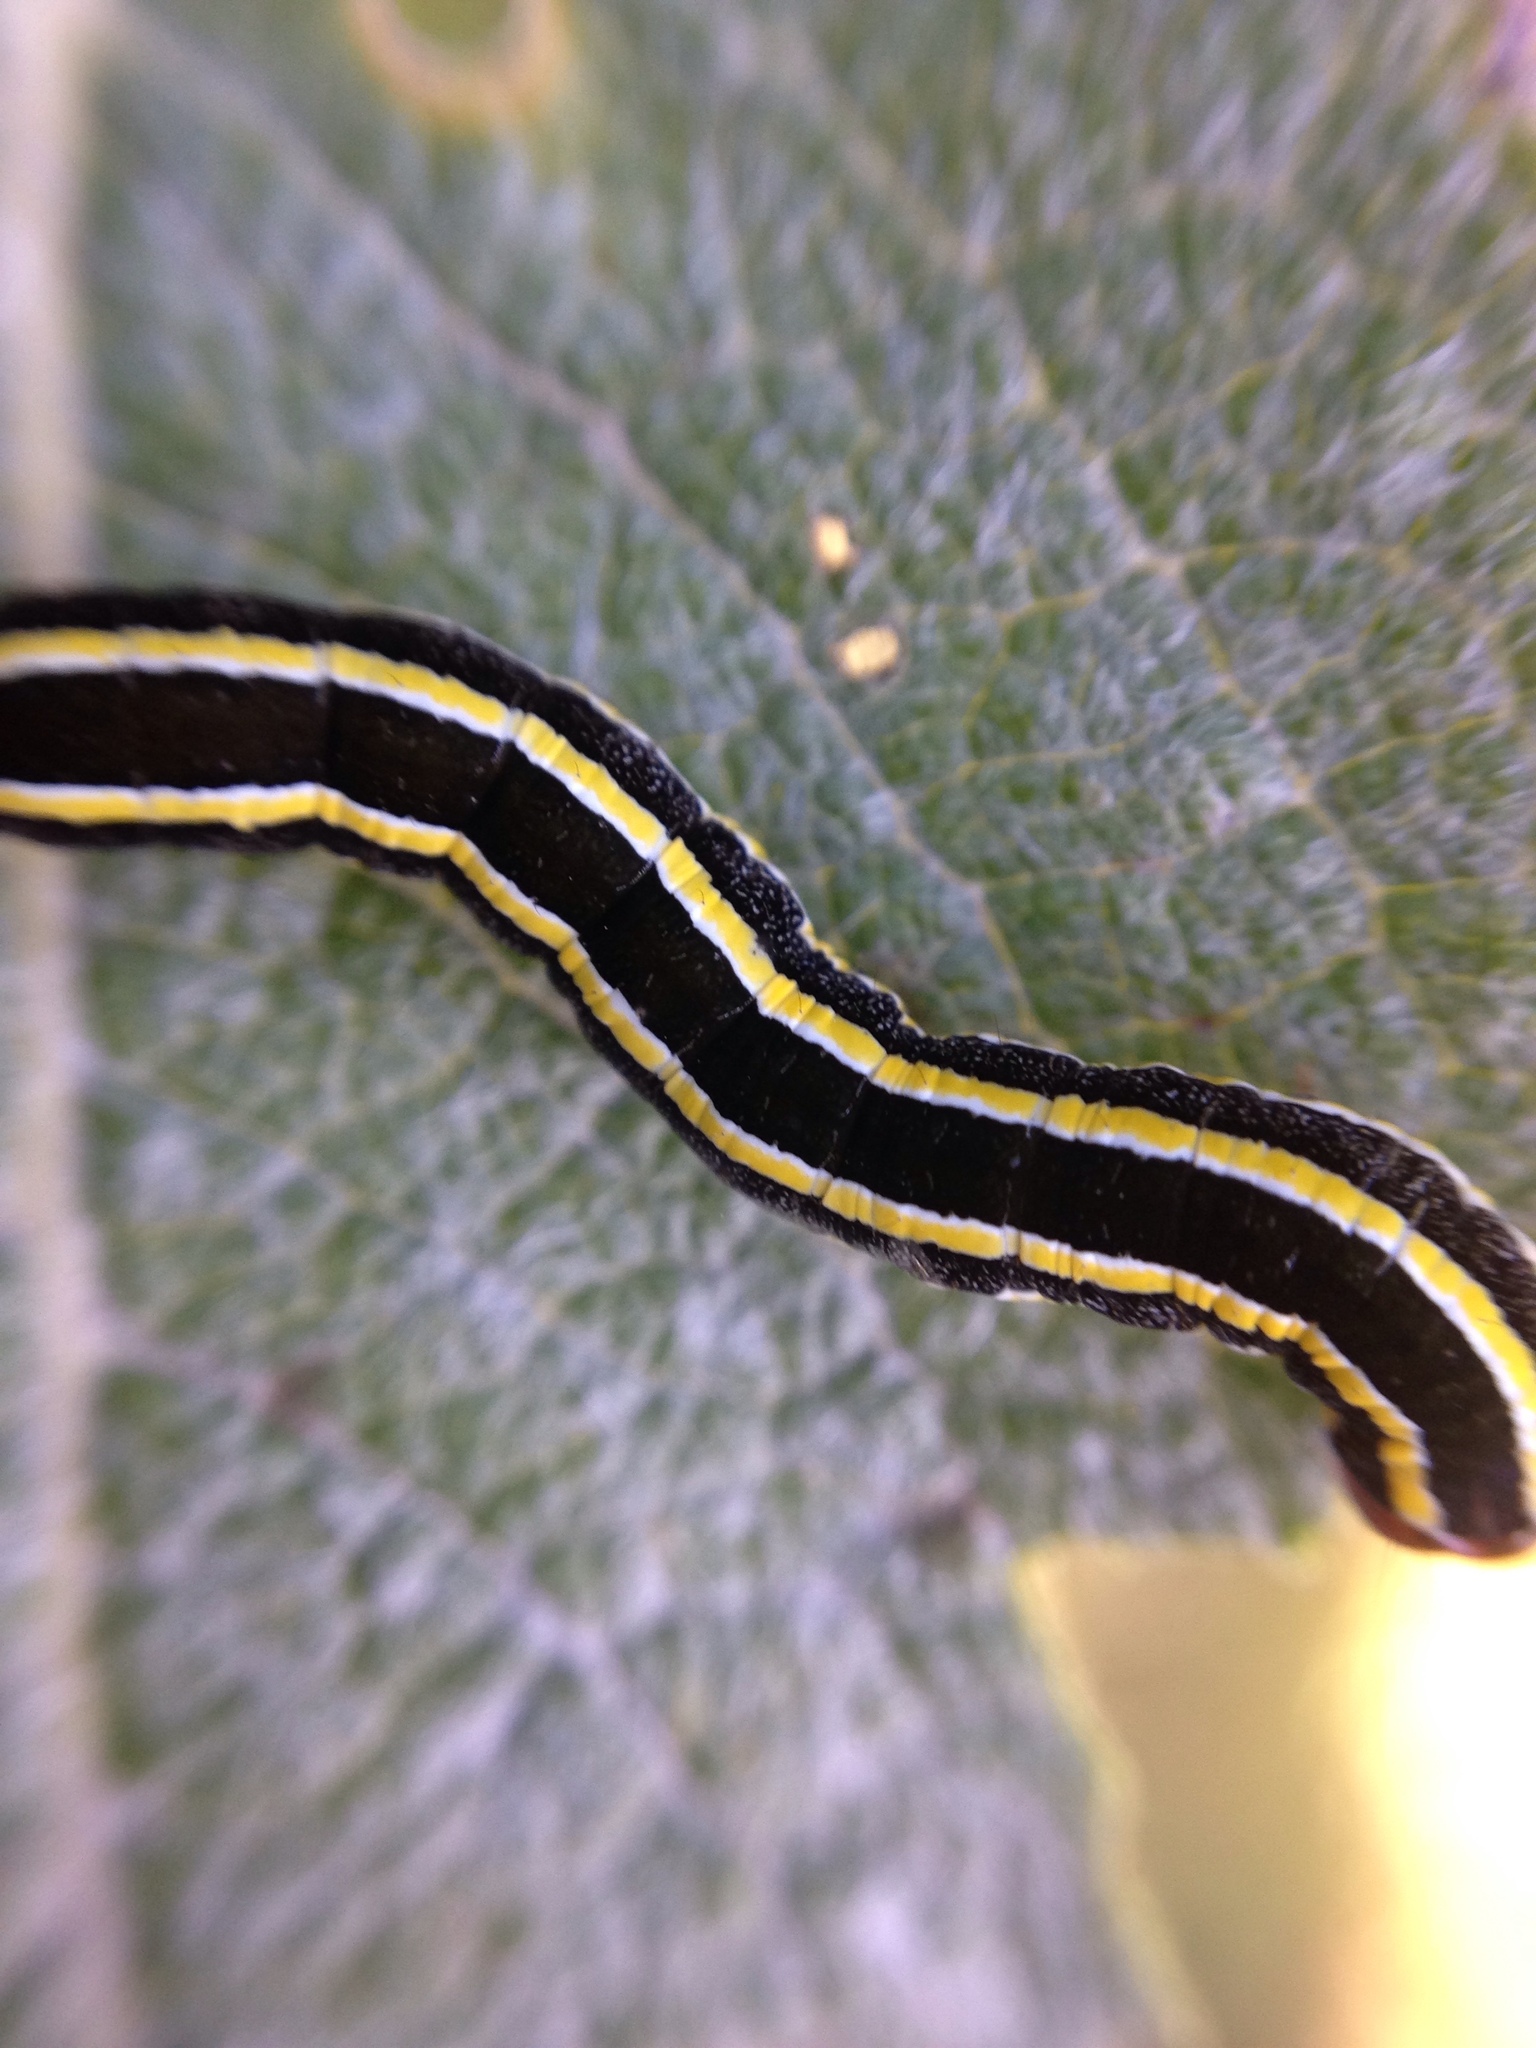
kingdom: Animalia
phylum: Arthropoda
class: Insecta
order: Lepidoptera
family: Noctuidae
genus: Ceramica
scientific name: Ceramica pisi
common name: Broom moth
